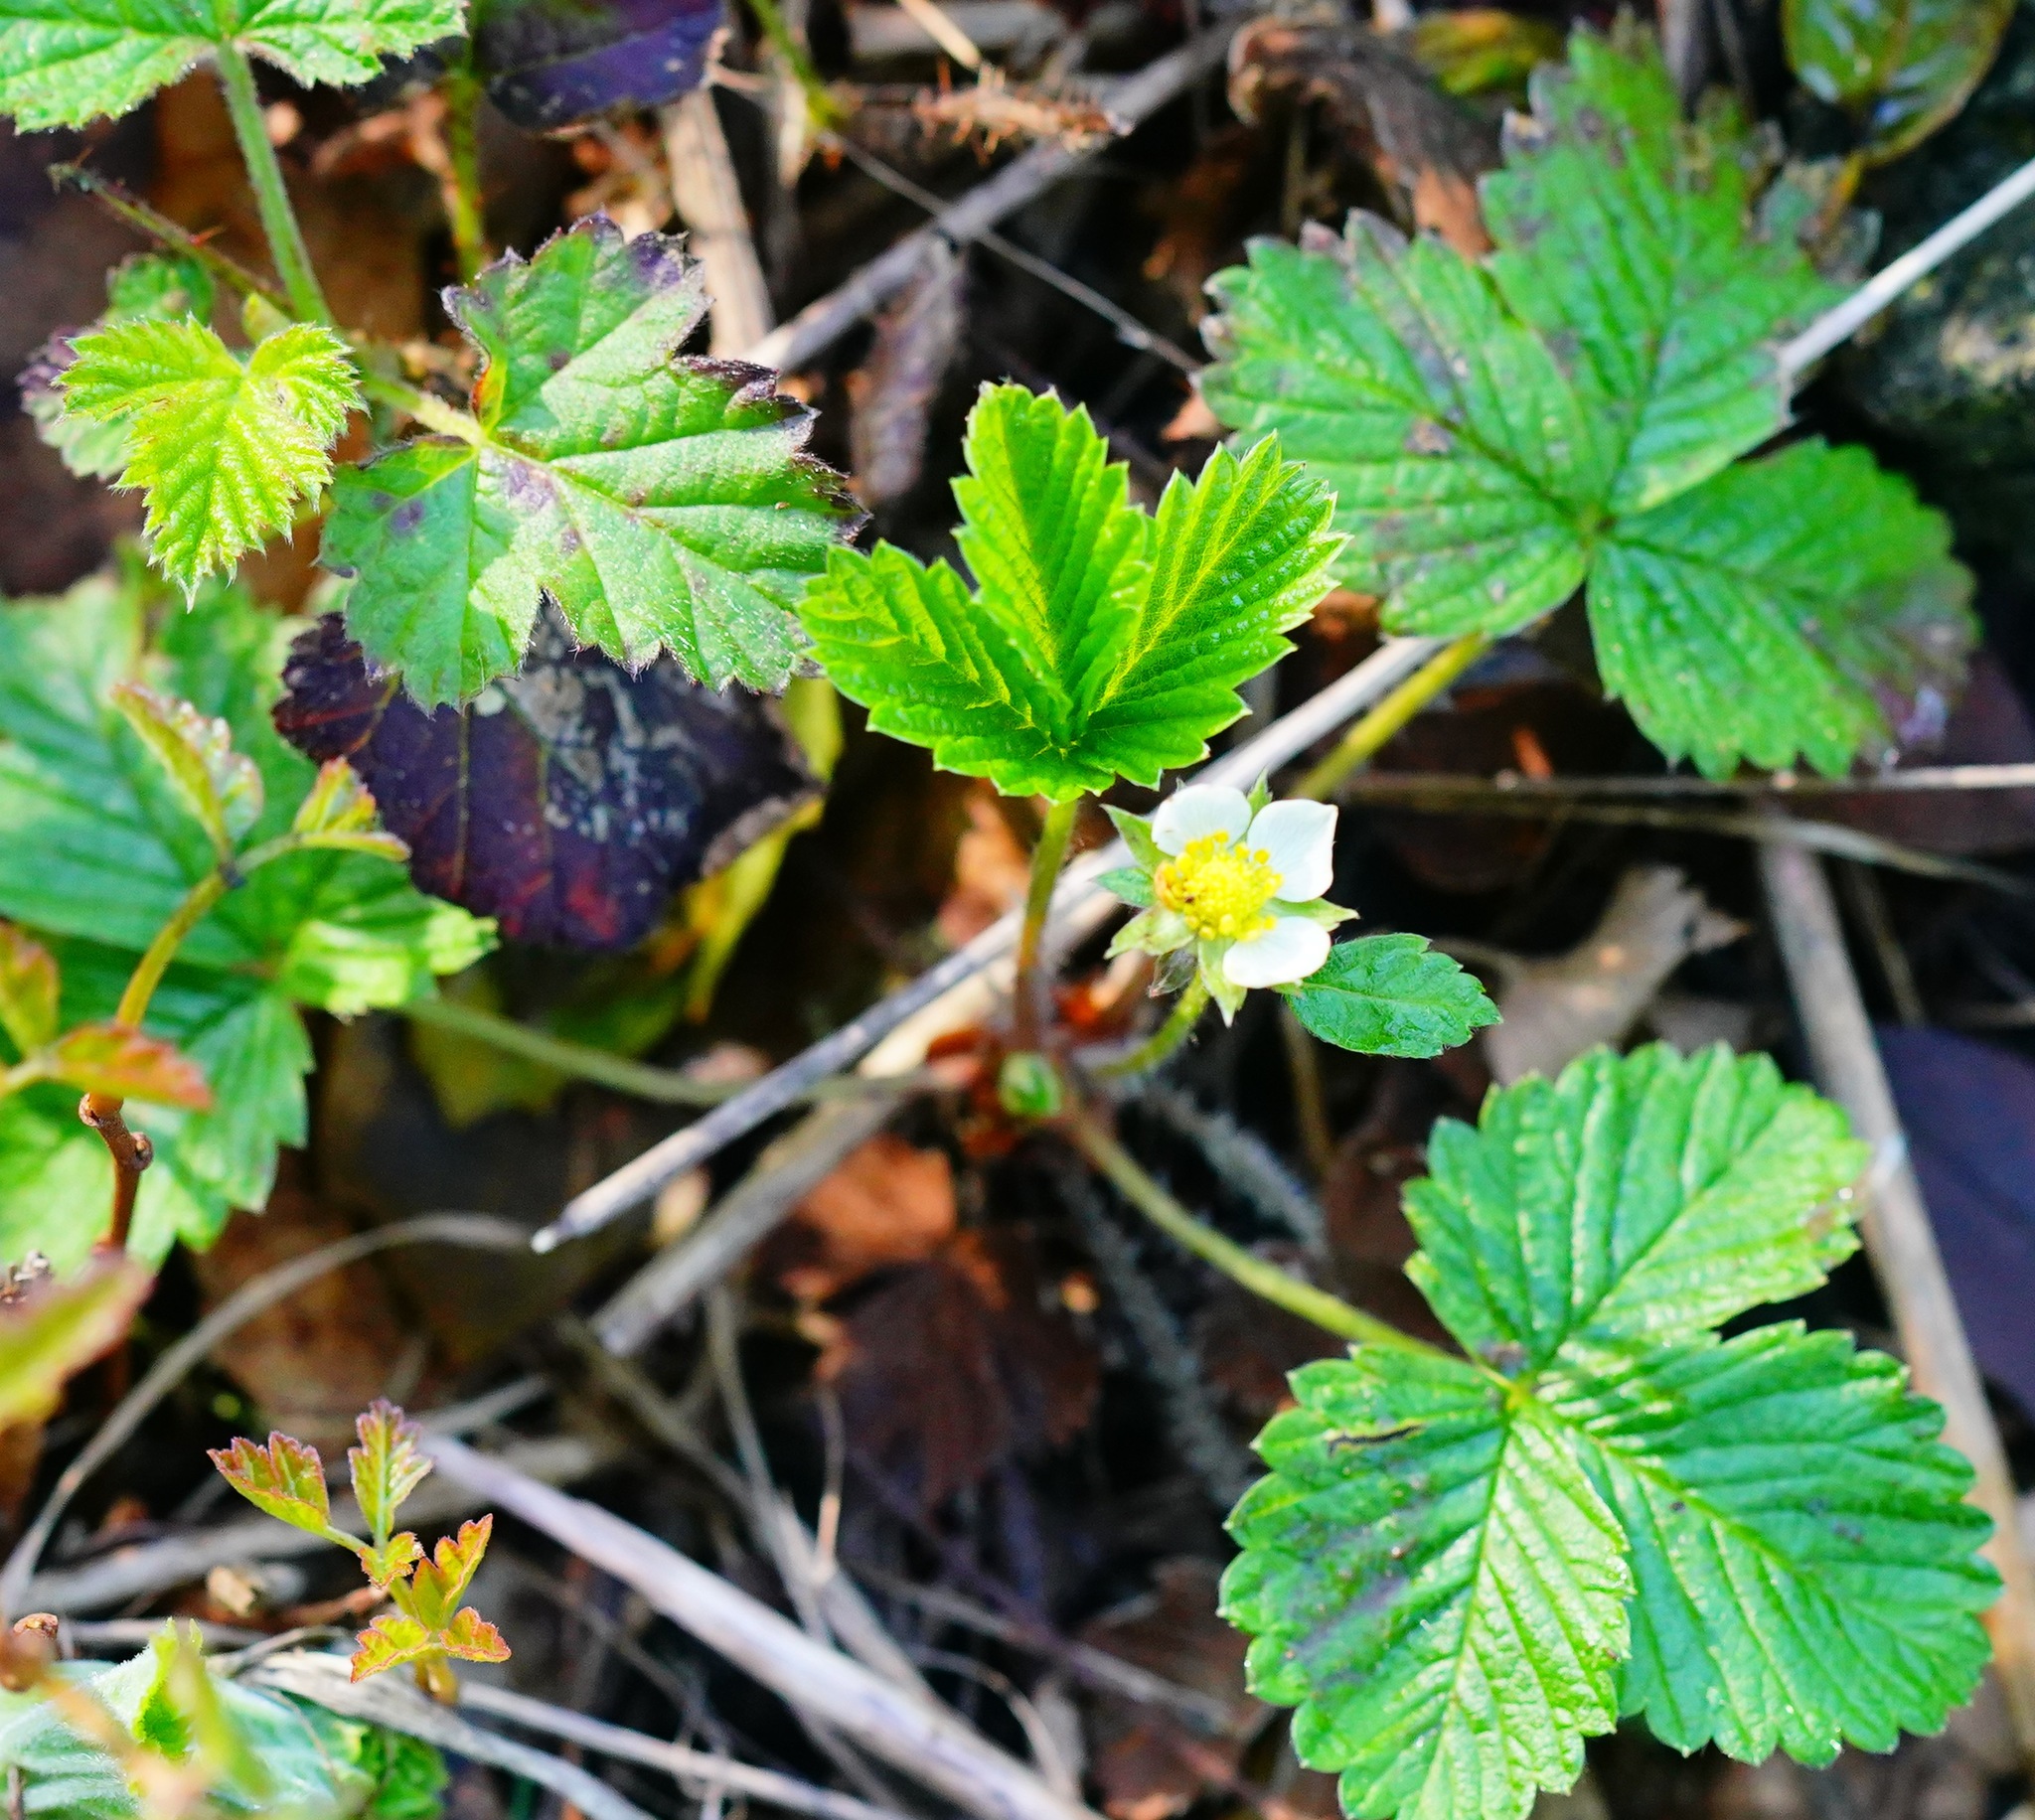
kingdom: Plantae
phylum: Tracheophyta
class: Magnoliopsida
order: Rosales
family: Rosaceae
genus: Fragaria
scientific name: Fragaria vesca
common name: Wild strawberry
